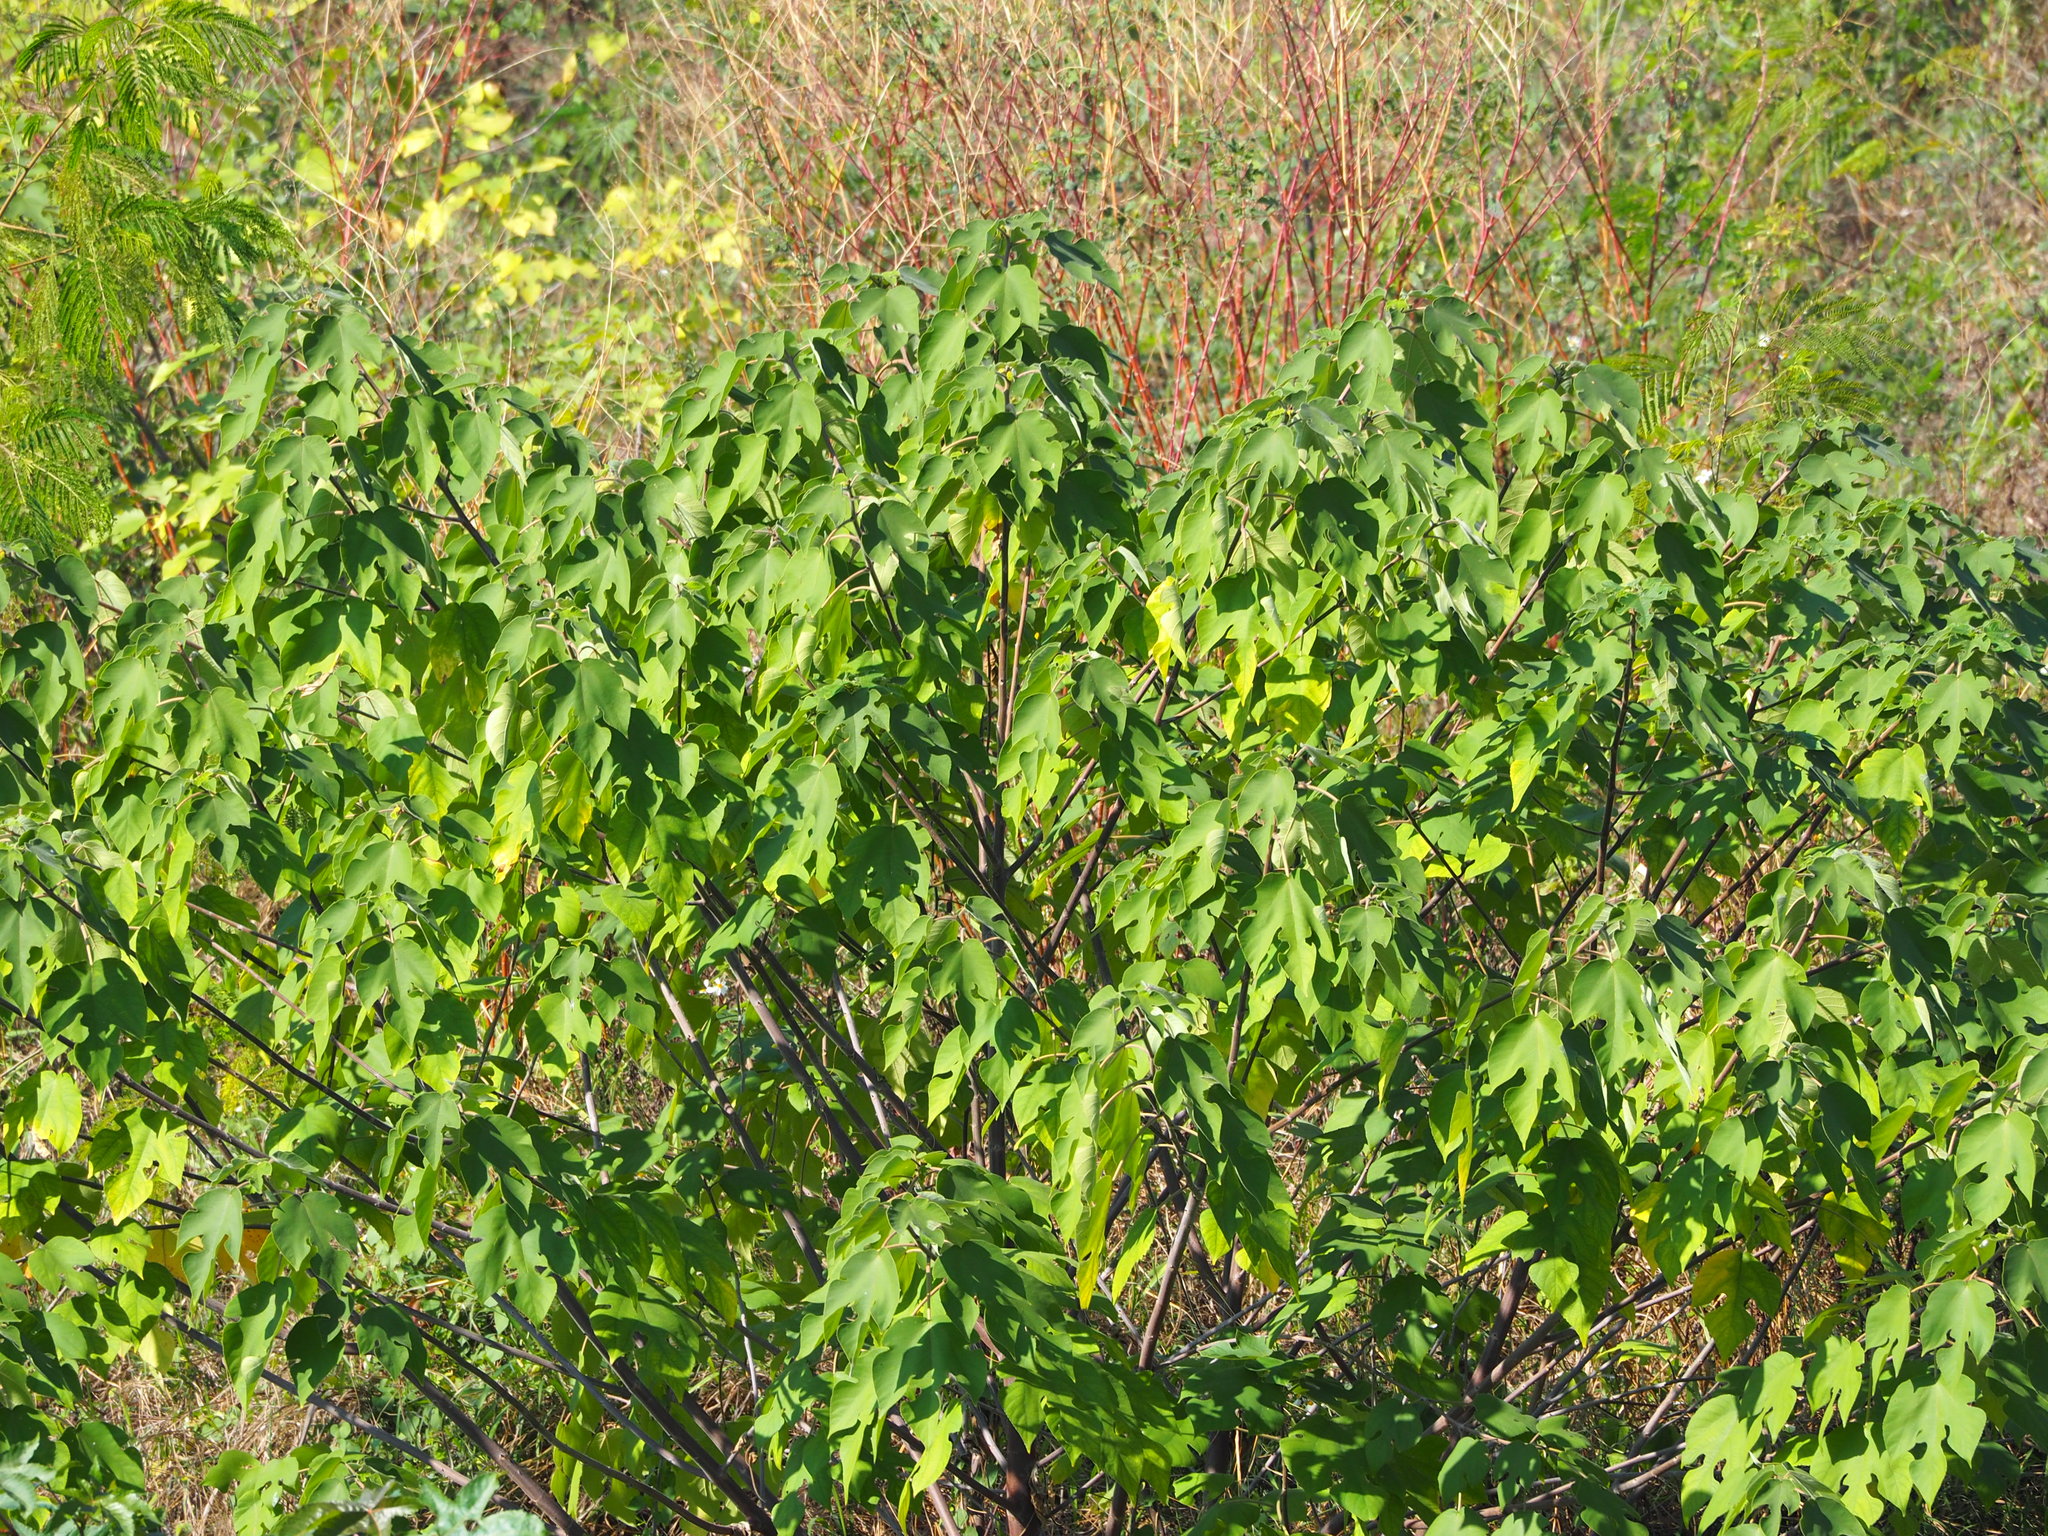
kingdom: Plantae
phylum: Tracheophyta
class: Magnoliopsida
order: Rosales
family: Moraceae
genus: Broussonetia
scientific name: Broussonetia papyrifera
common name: Paper mulberry
